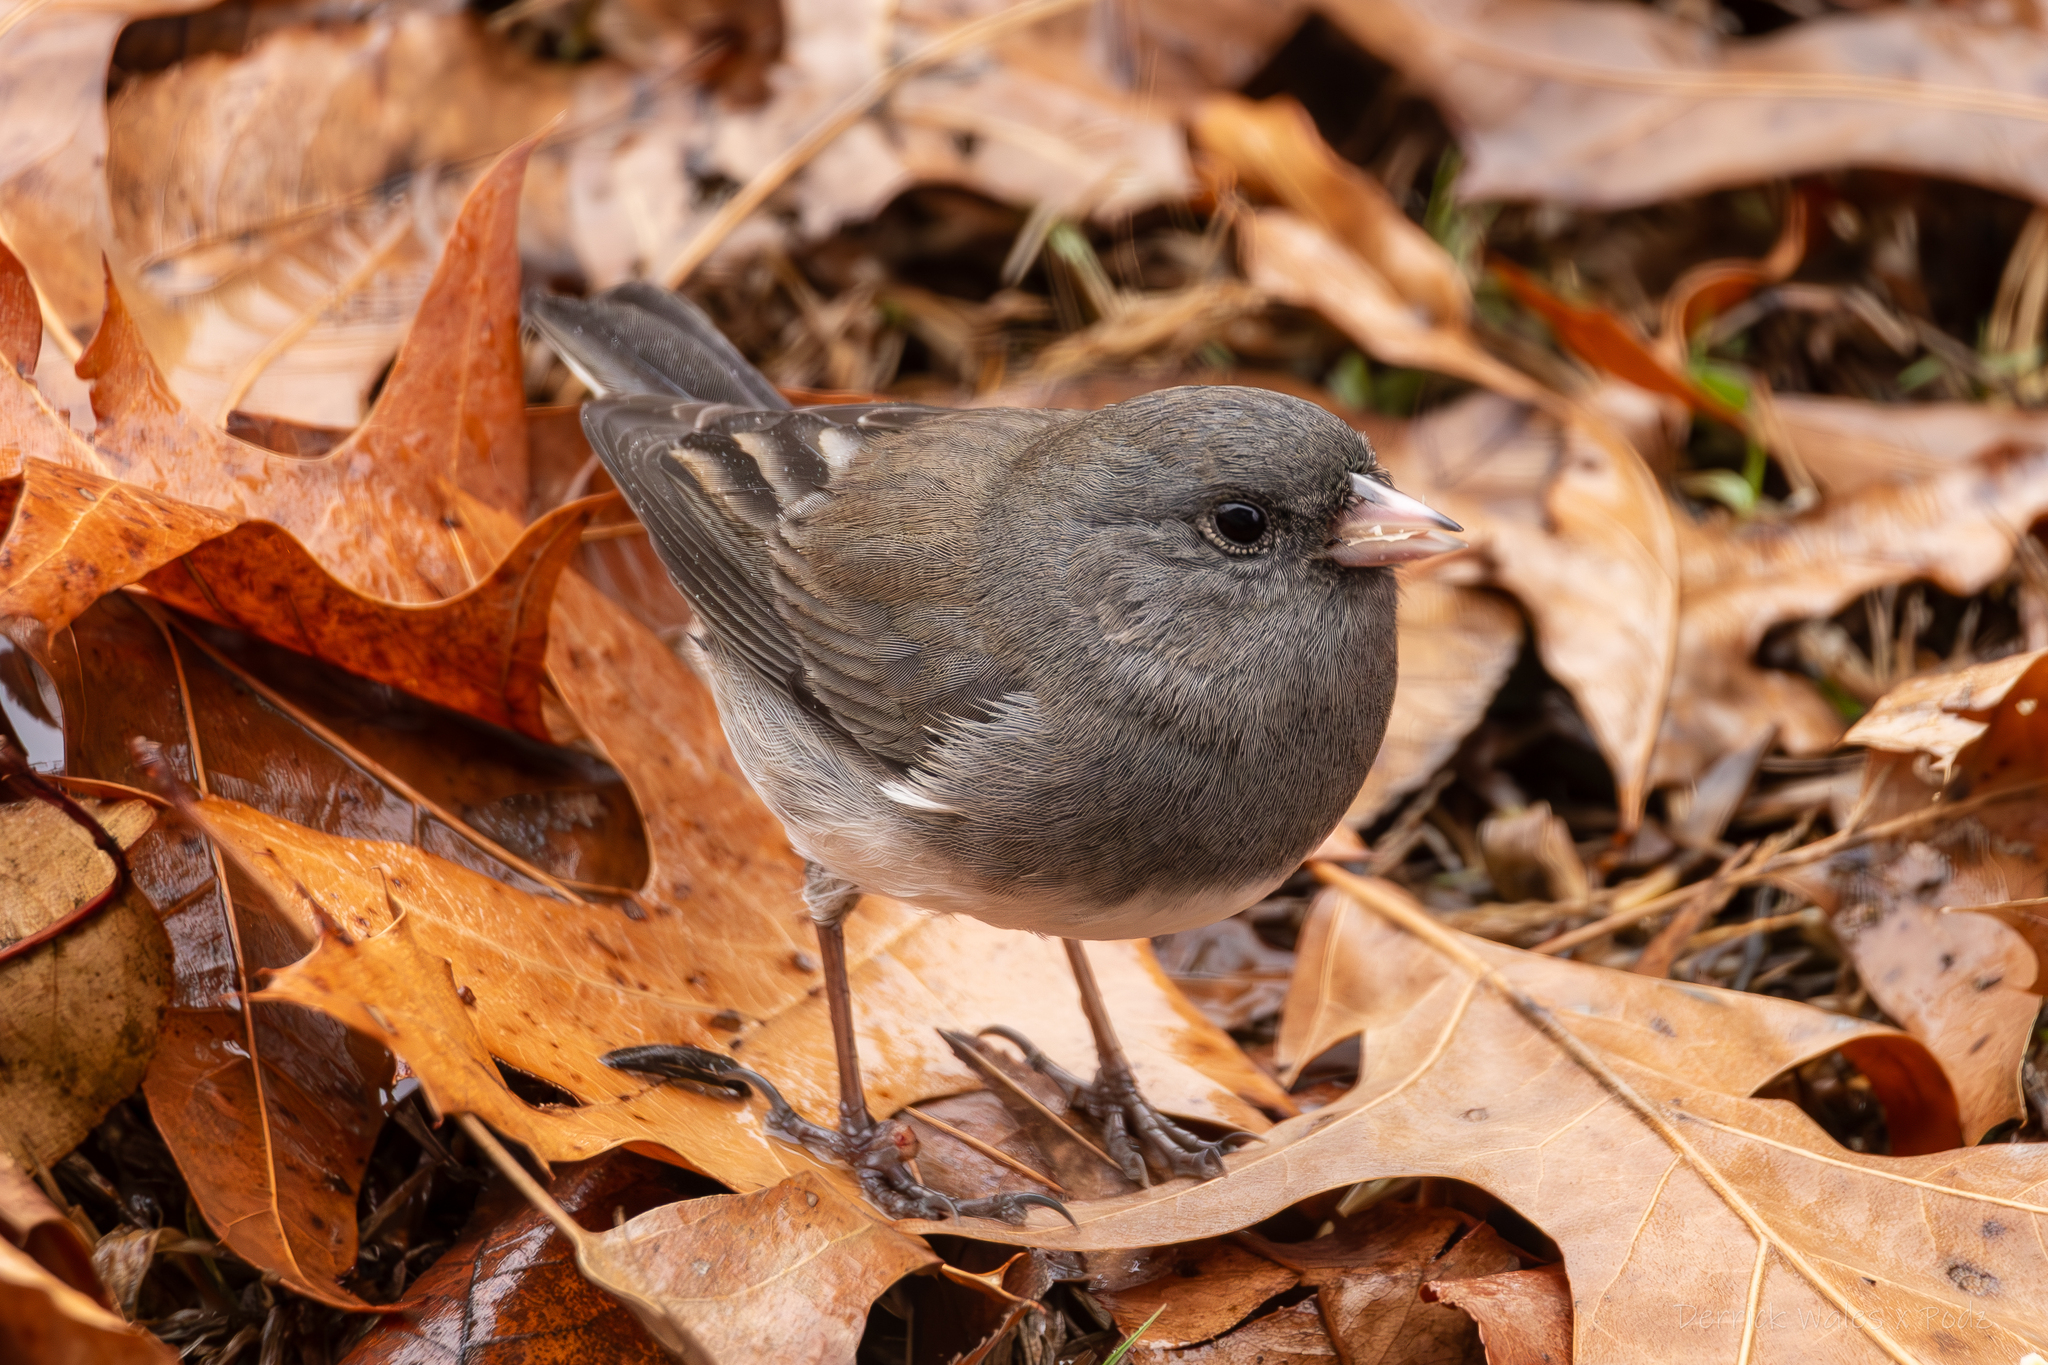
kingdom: Animalia
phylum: Chordata
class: Aves
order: Passeriformes
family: Passerellidae
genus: Junco
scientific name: Junco hyemalis
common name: Dark-eyed junco
